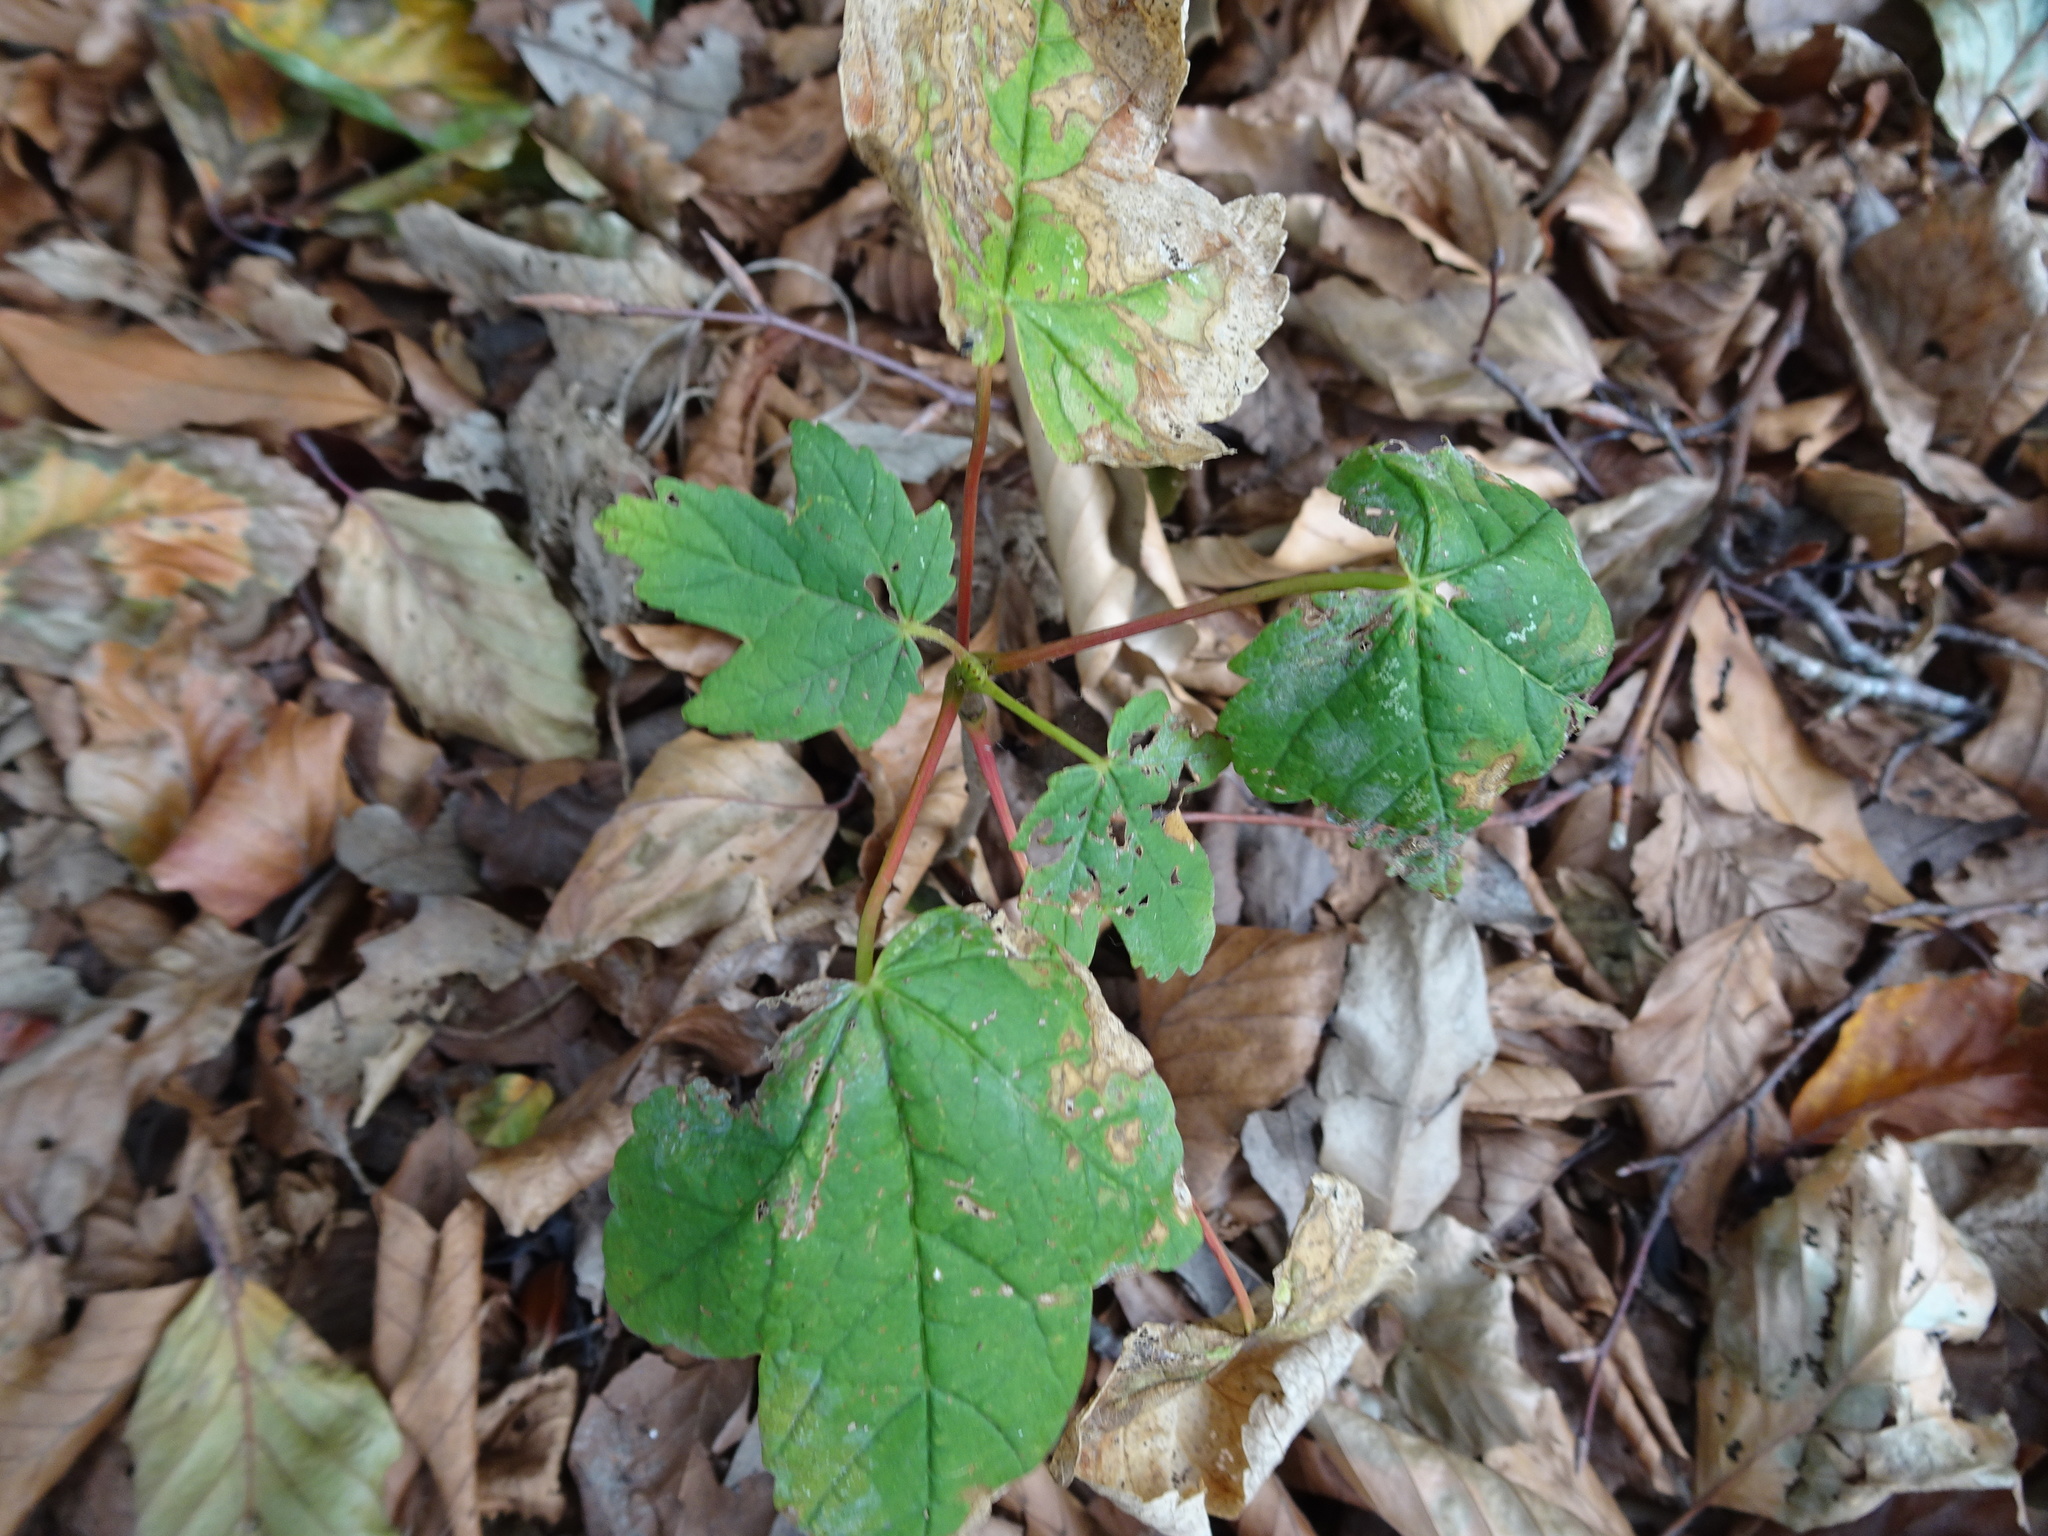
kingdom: Plantae
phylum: Tracheophyta
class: Magnoliopsida
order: Sapindales
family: Sapindaceae
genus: Acer
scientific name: Acer pseudoplatanus
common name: Sycamore
